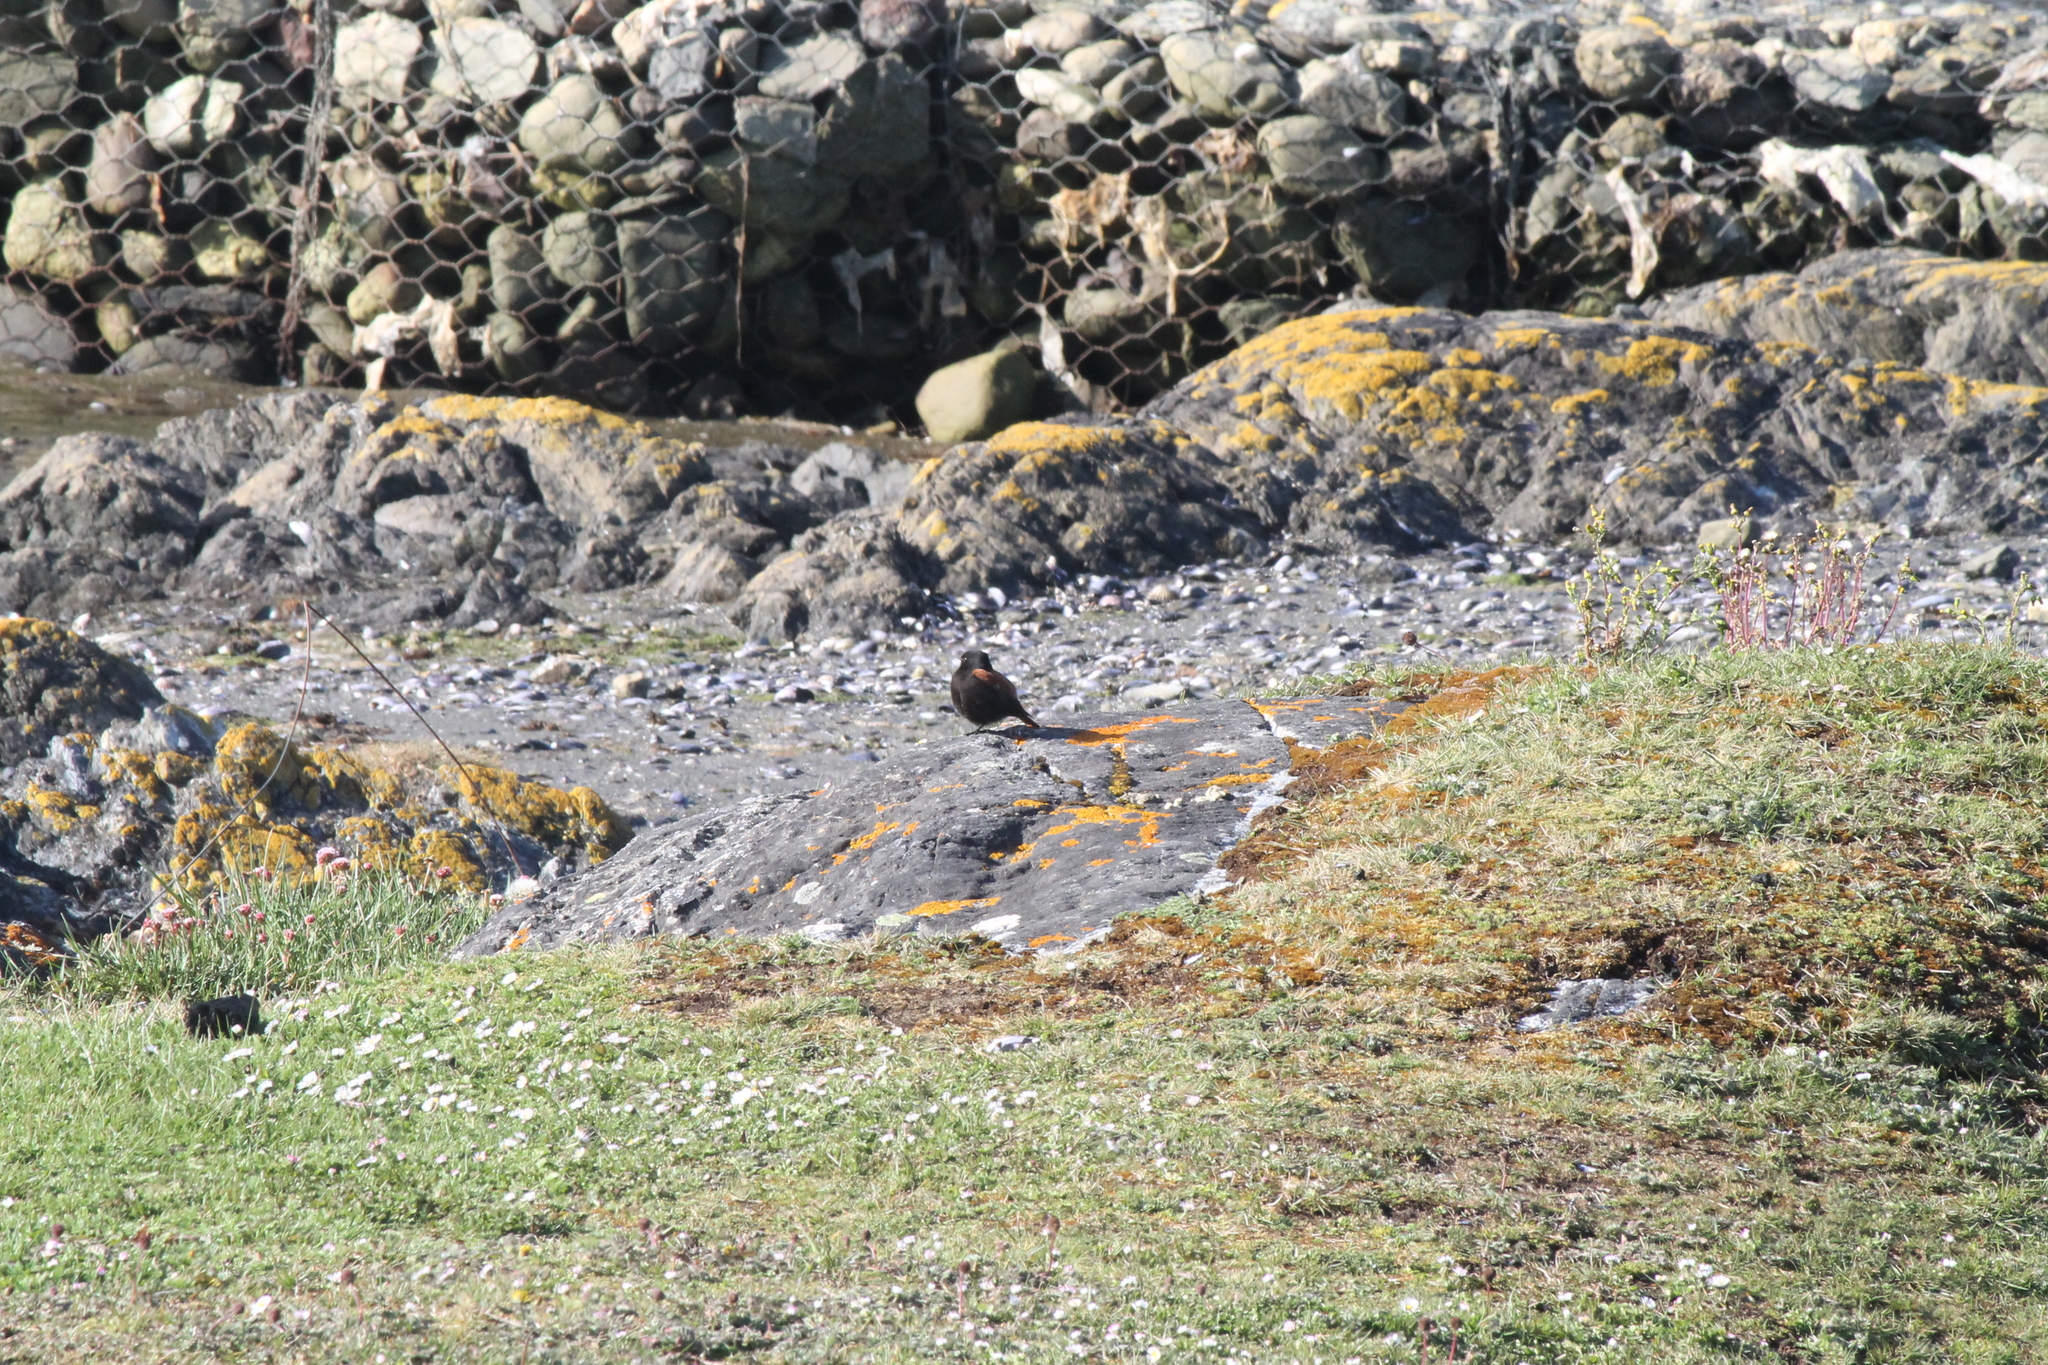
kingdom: Animalia
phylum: Chordata
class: Aves
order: Passeriformes
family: Tyrannidae
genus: Lessonia
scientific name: Lessonia rufa
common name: Austral negrito
